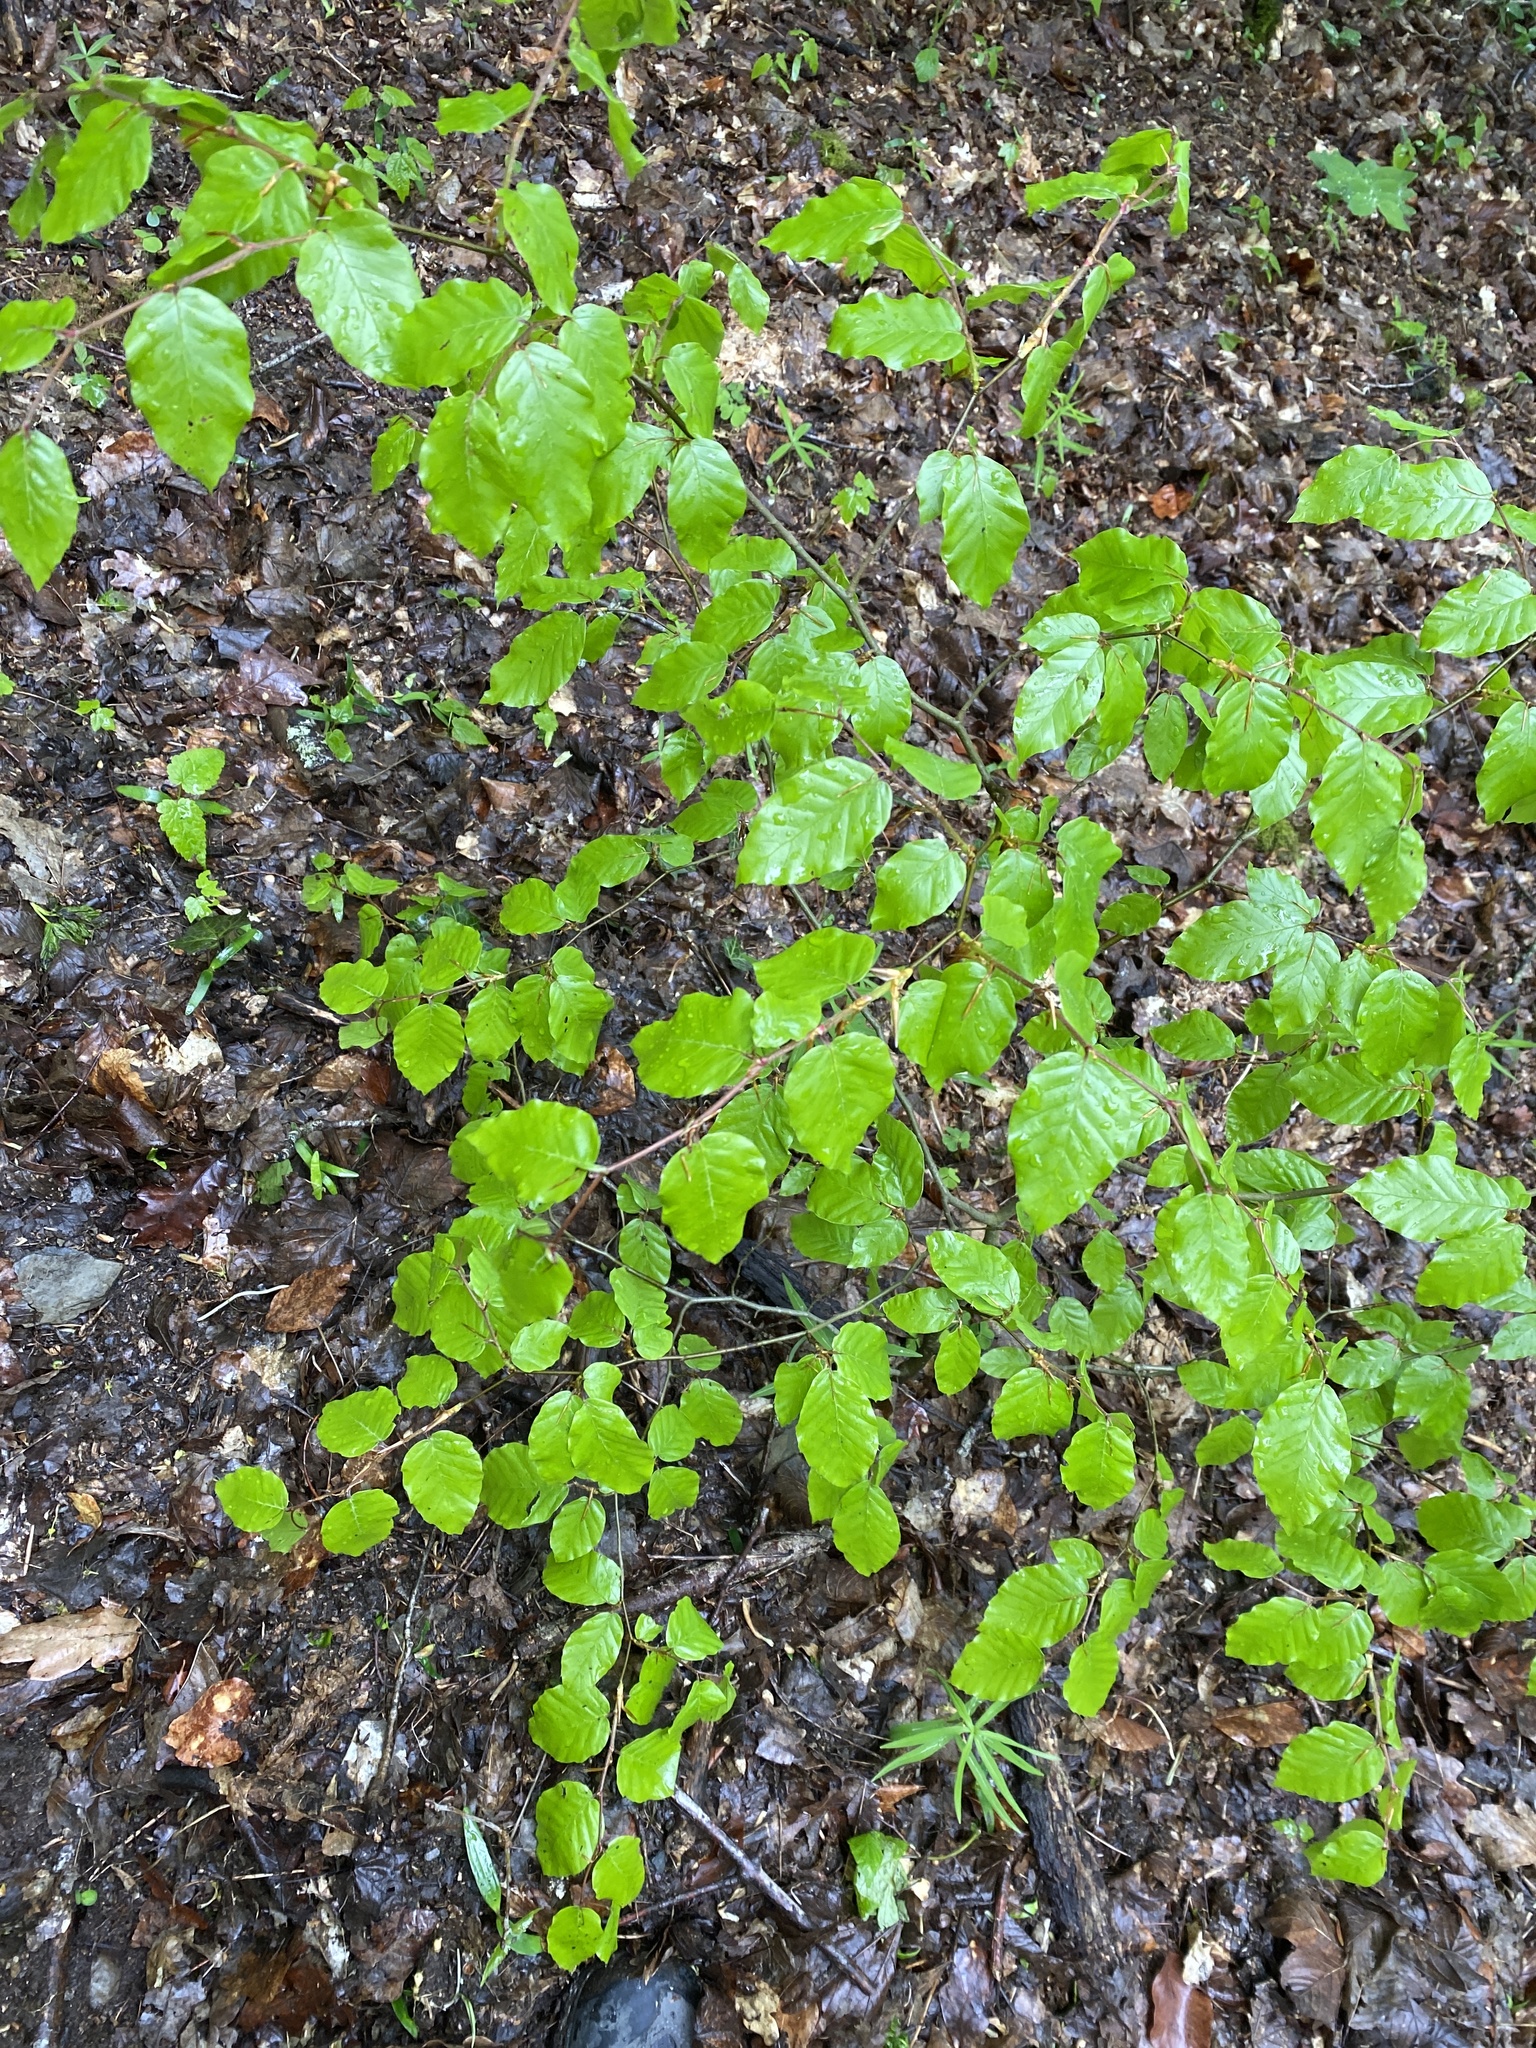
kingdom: Plantae
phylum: Tracheophyta
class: Magnoliopsida
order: Fagales
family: Fagaceae
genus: Fagus
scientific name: Fagus sylvatica
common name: Beech
